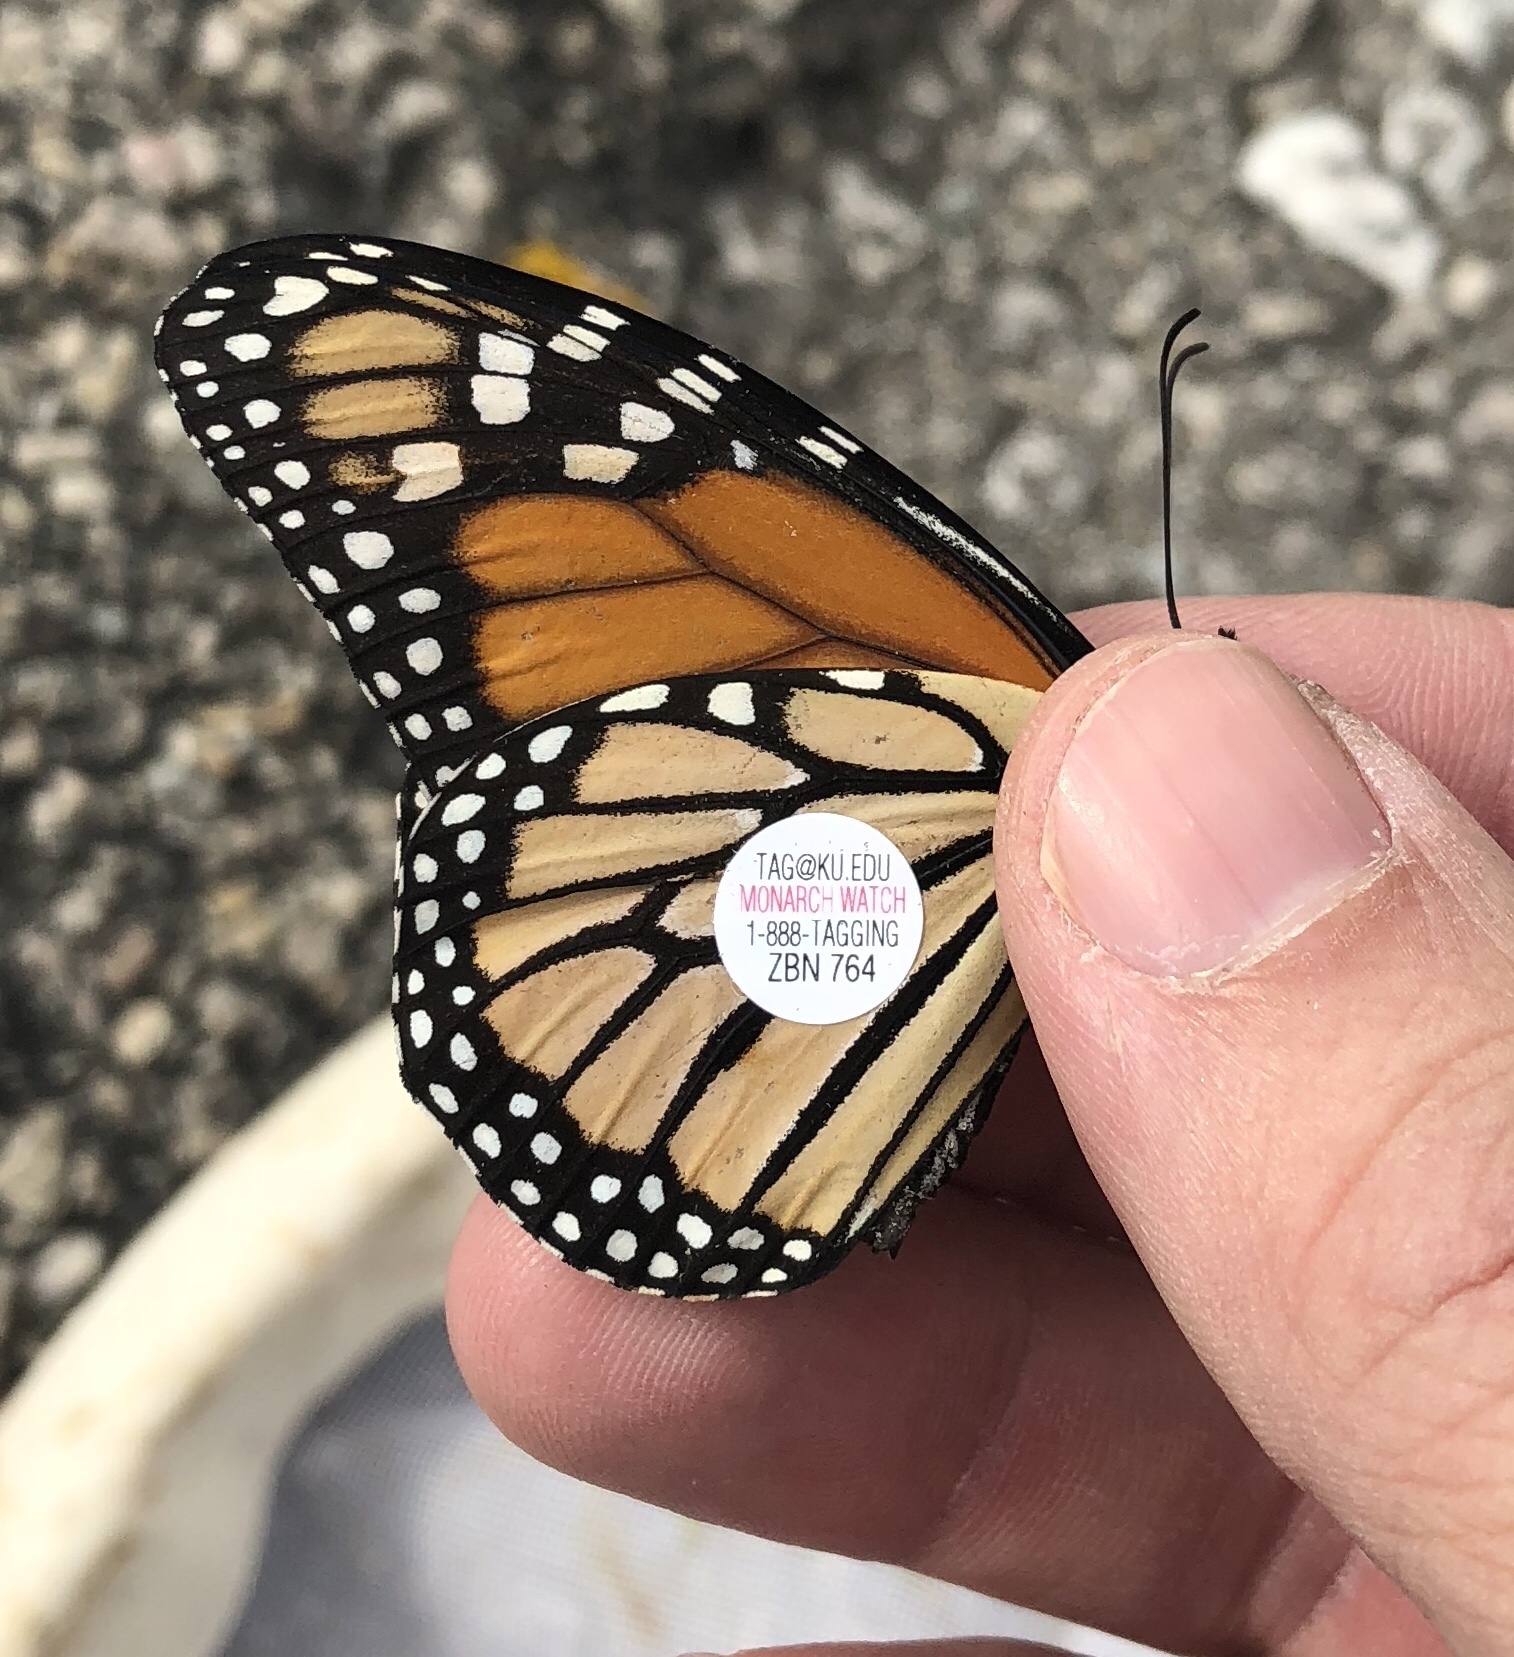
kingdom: Animalia
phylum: Arthropoda
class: Insecta
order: Lepidoptera
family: Nymphalidae
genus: Danaus
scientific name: Danaus plexippus
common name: Monarch
